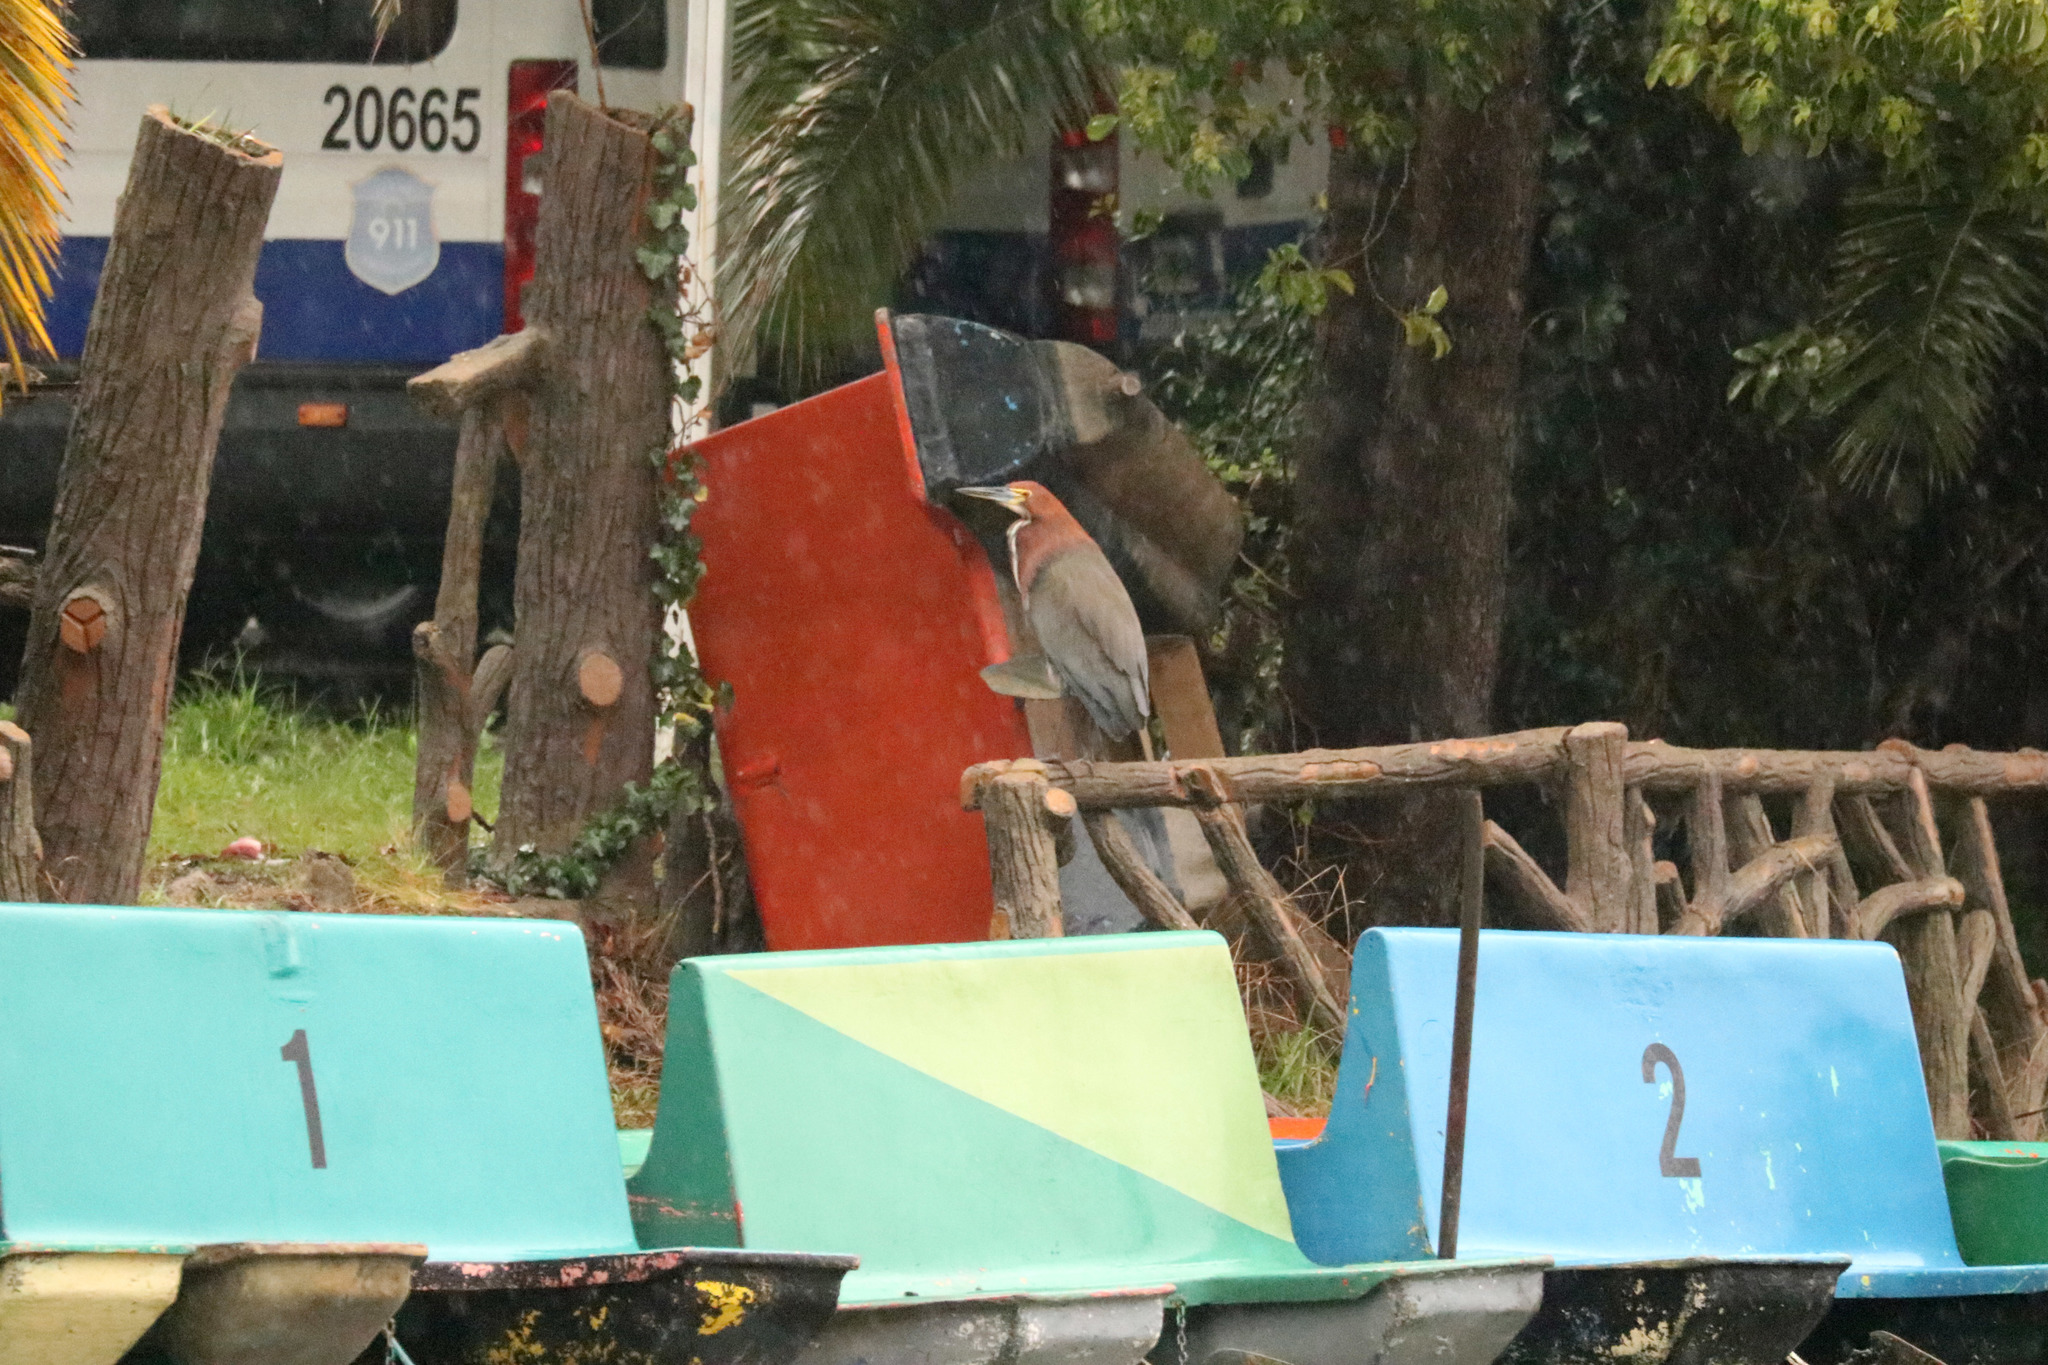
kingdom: Animalia
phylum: Chordata
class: Aves
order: Pelecaniformes
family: Ardeidae
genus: Tigrisoma
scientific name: Tigrisoma lineatum
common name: Rufescent tiger-heron
